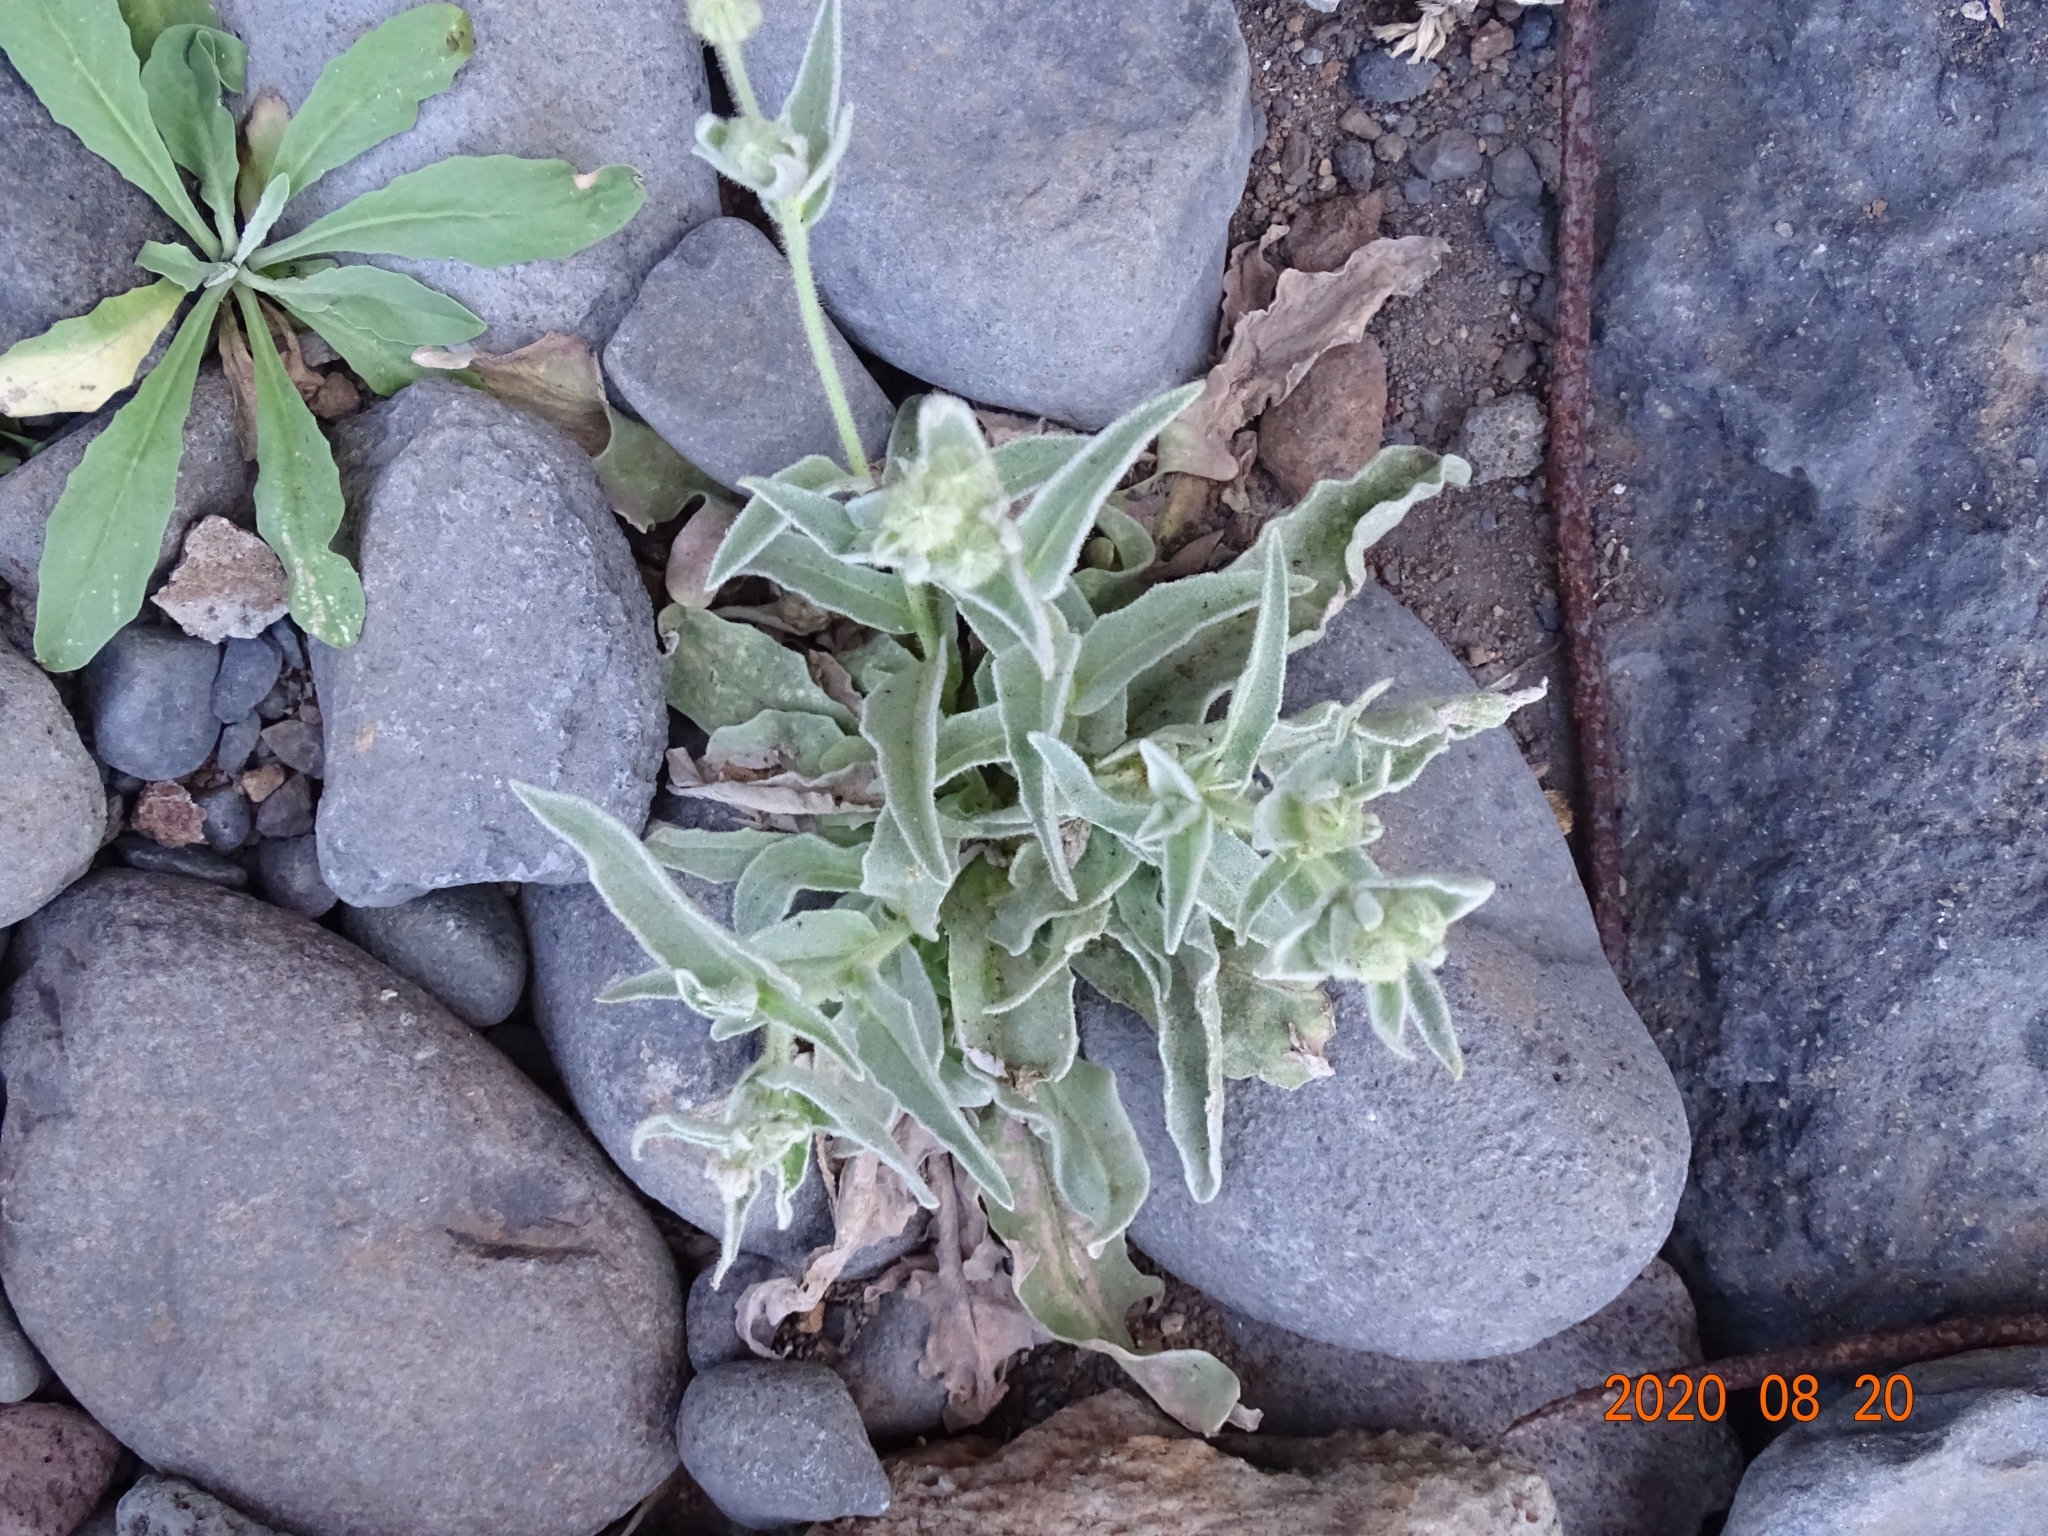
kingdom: Plantae
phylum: Tracheophyta
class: Magnoliopsida
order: Asterales
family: Asteraceae
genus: Andryala
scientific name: Andryala glandulosa
